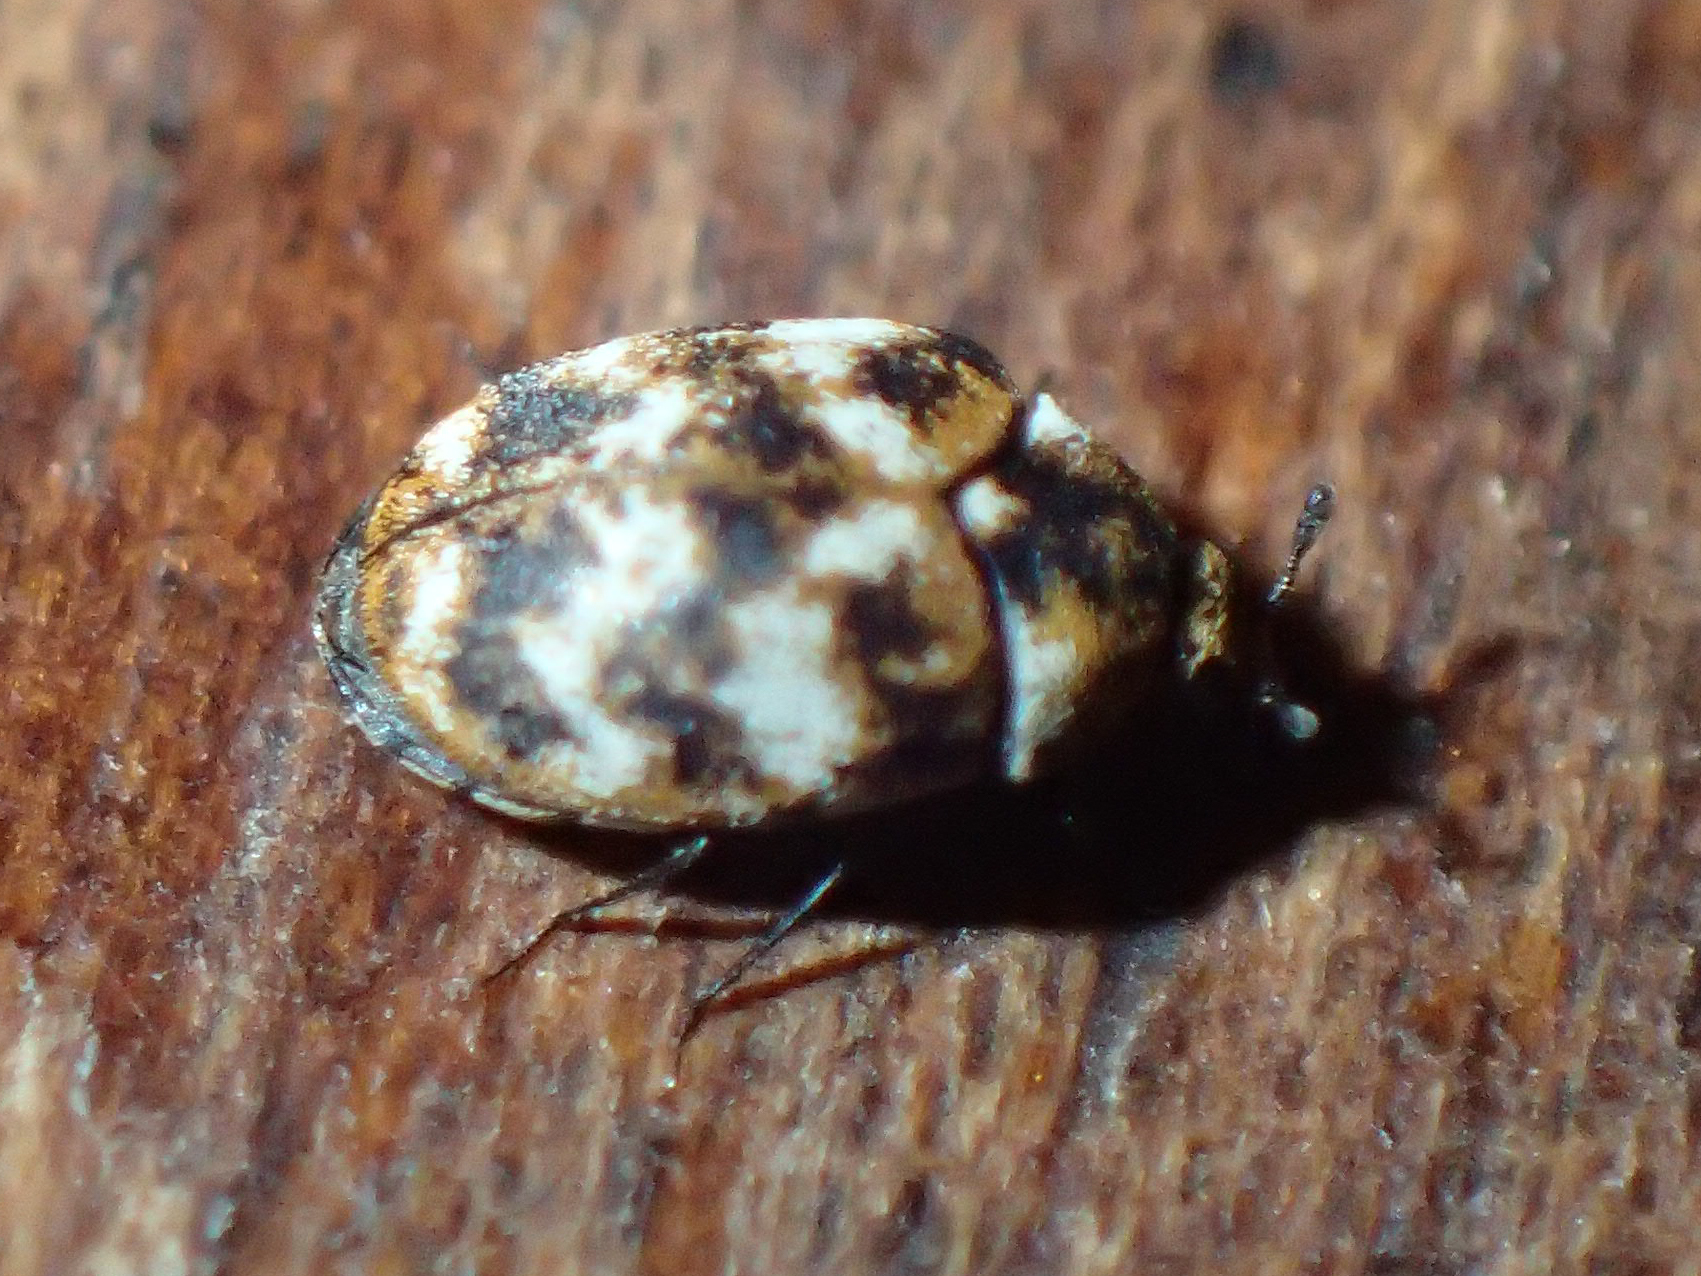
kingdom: Animalia
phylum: Arthropoda
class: Insecta
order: Coleoptera
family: Dermestidae
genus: Anthrenus
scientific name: Anthrenus verbasci
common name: Varied carpet beetle
